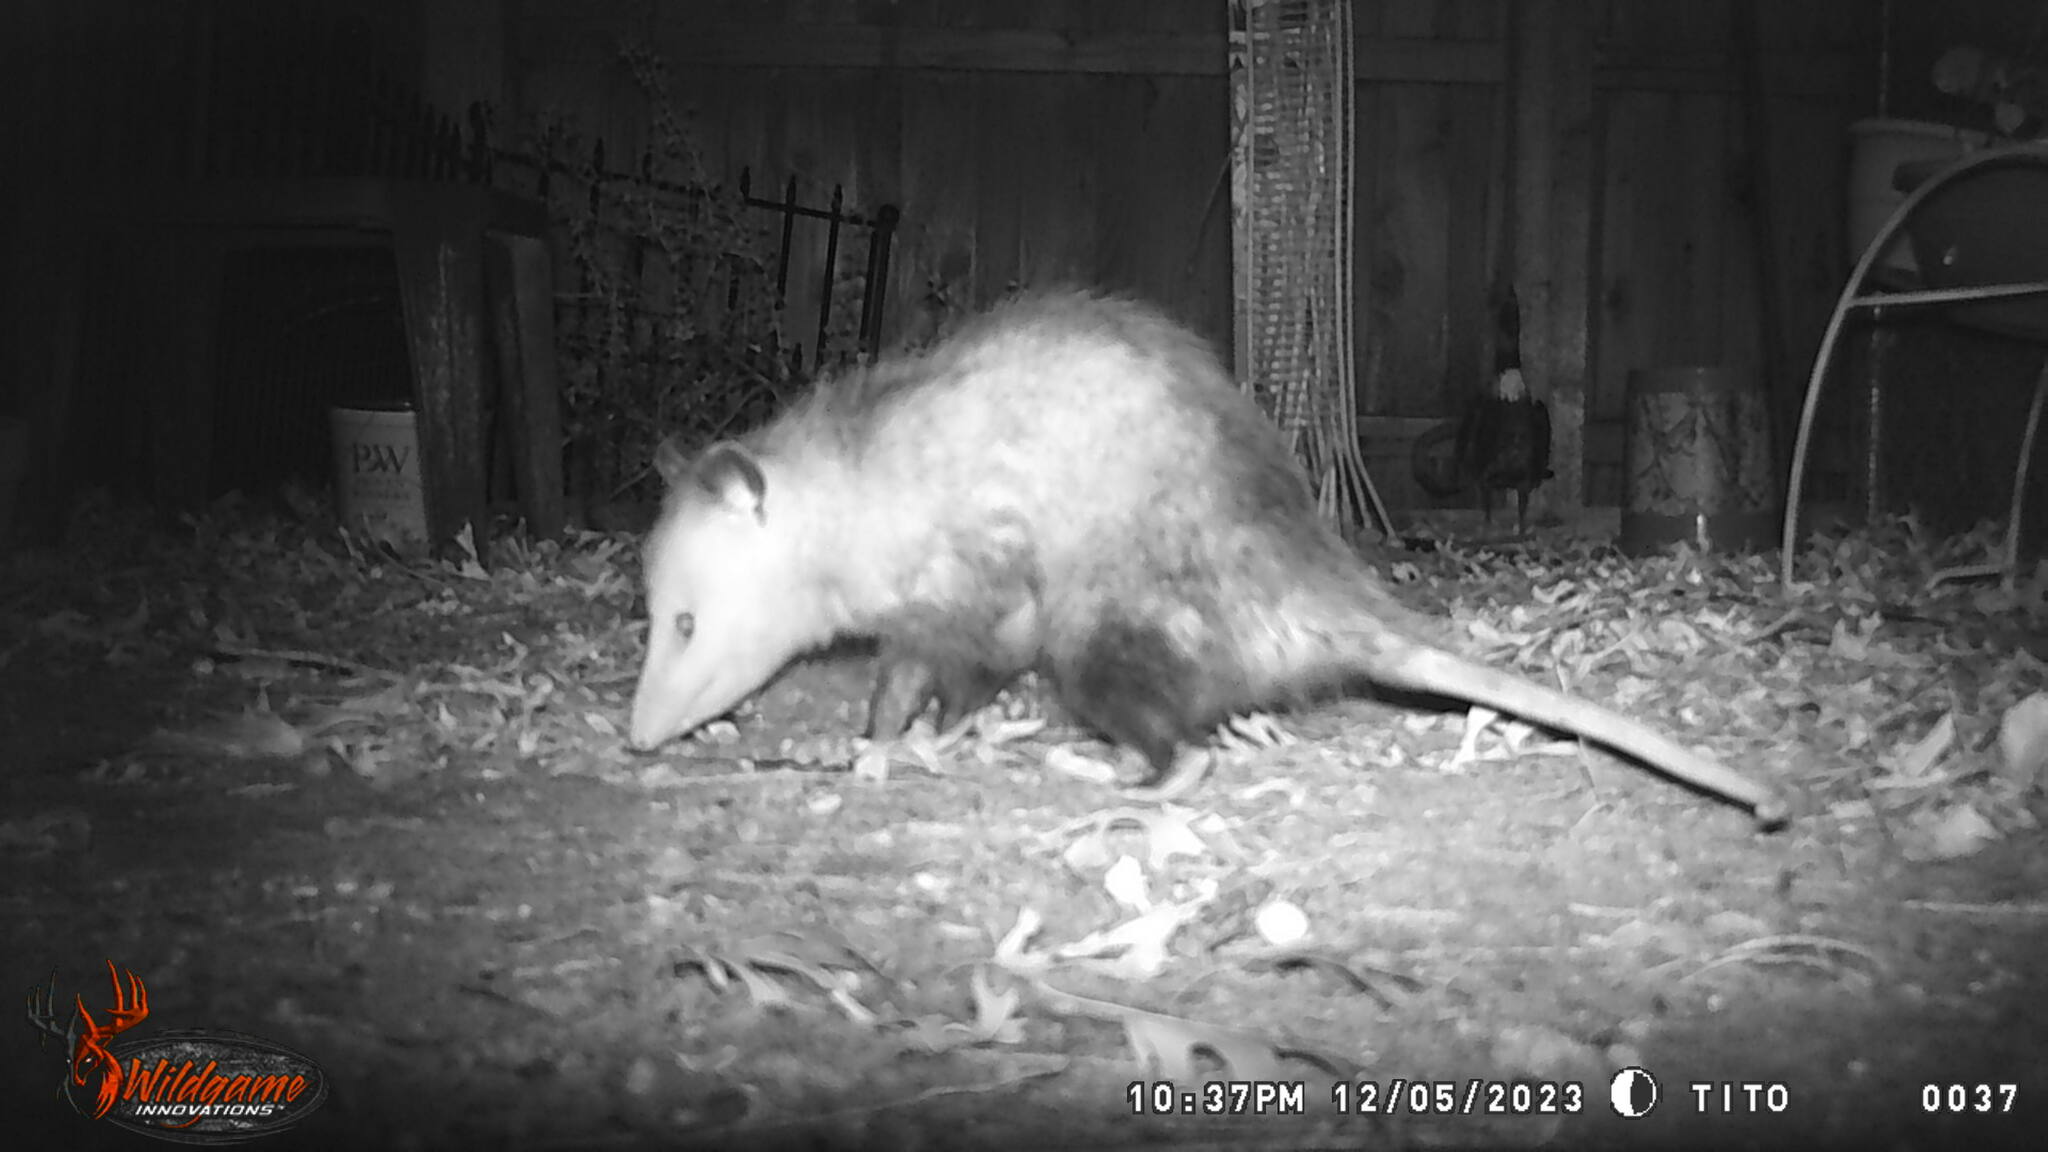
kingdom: Animalia
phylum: Chordata
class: Mammalia
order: Didelphimorphia
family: Didelphidae
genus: Didelphis
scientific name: Didelphis virginiana
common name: Virginia opossum
